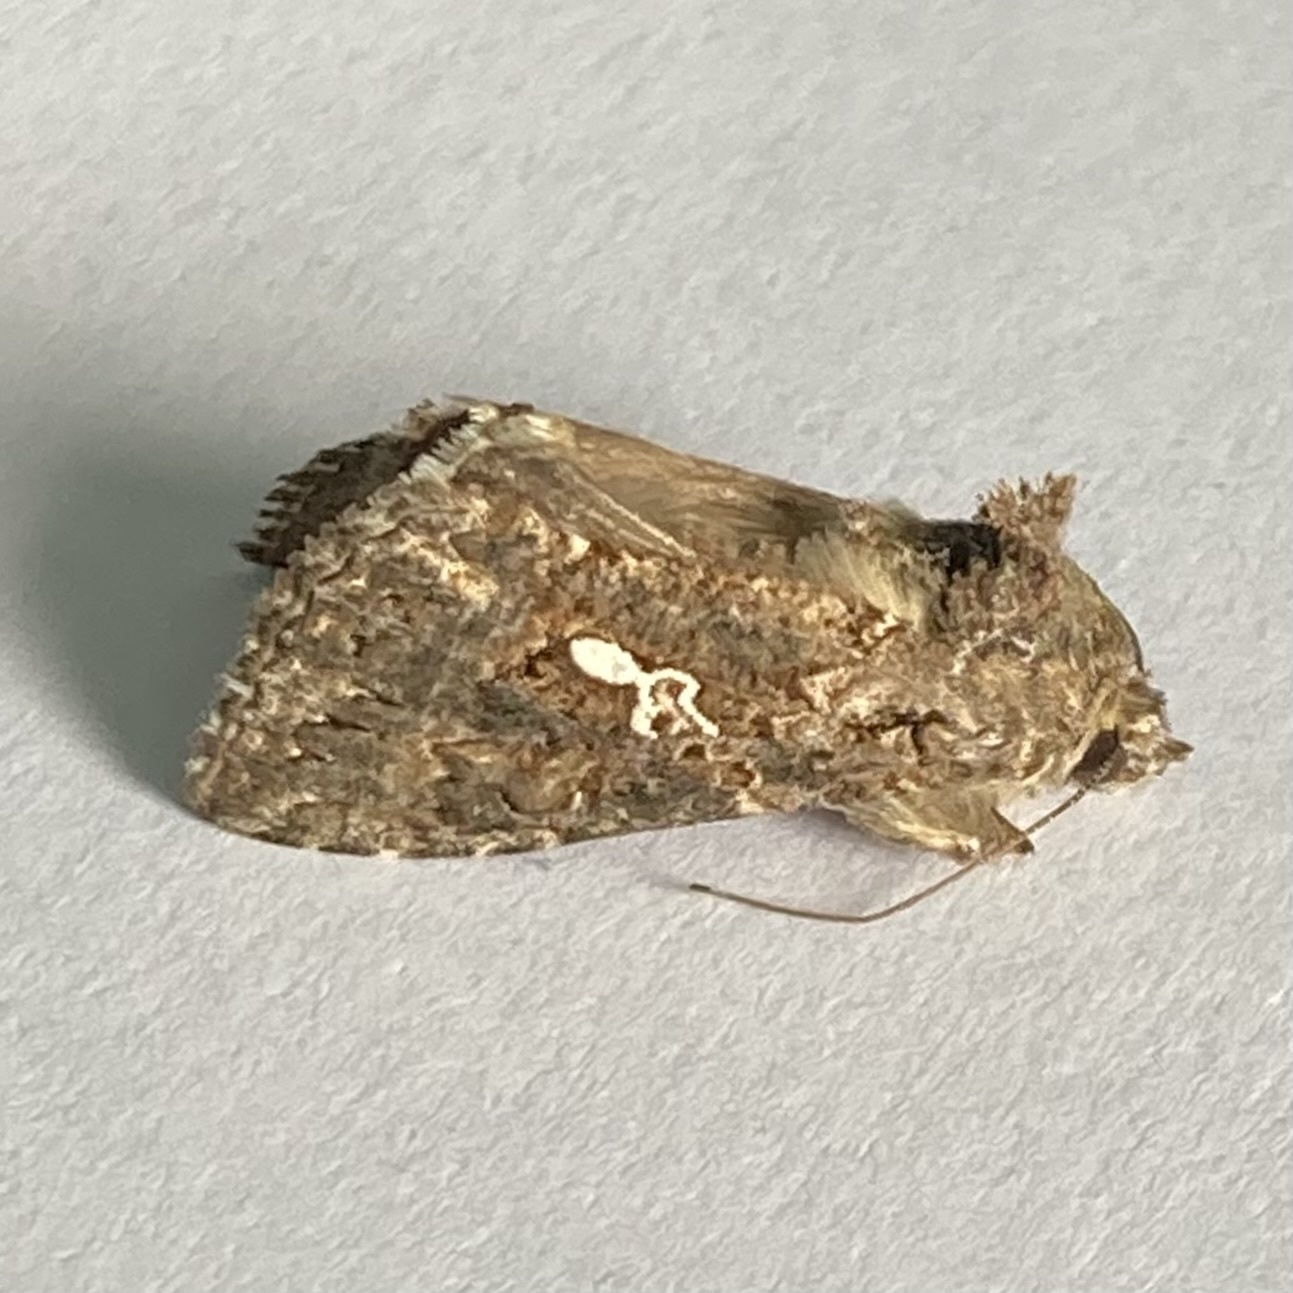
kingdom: Animalia
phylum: Arthropoda
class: Insecta
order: Lepidoptera
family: Noctuidae
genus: Trichoplusia
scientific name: Trichoplusia ni
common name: Ni moth
